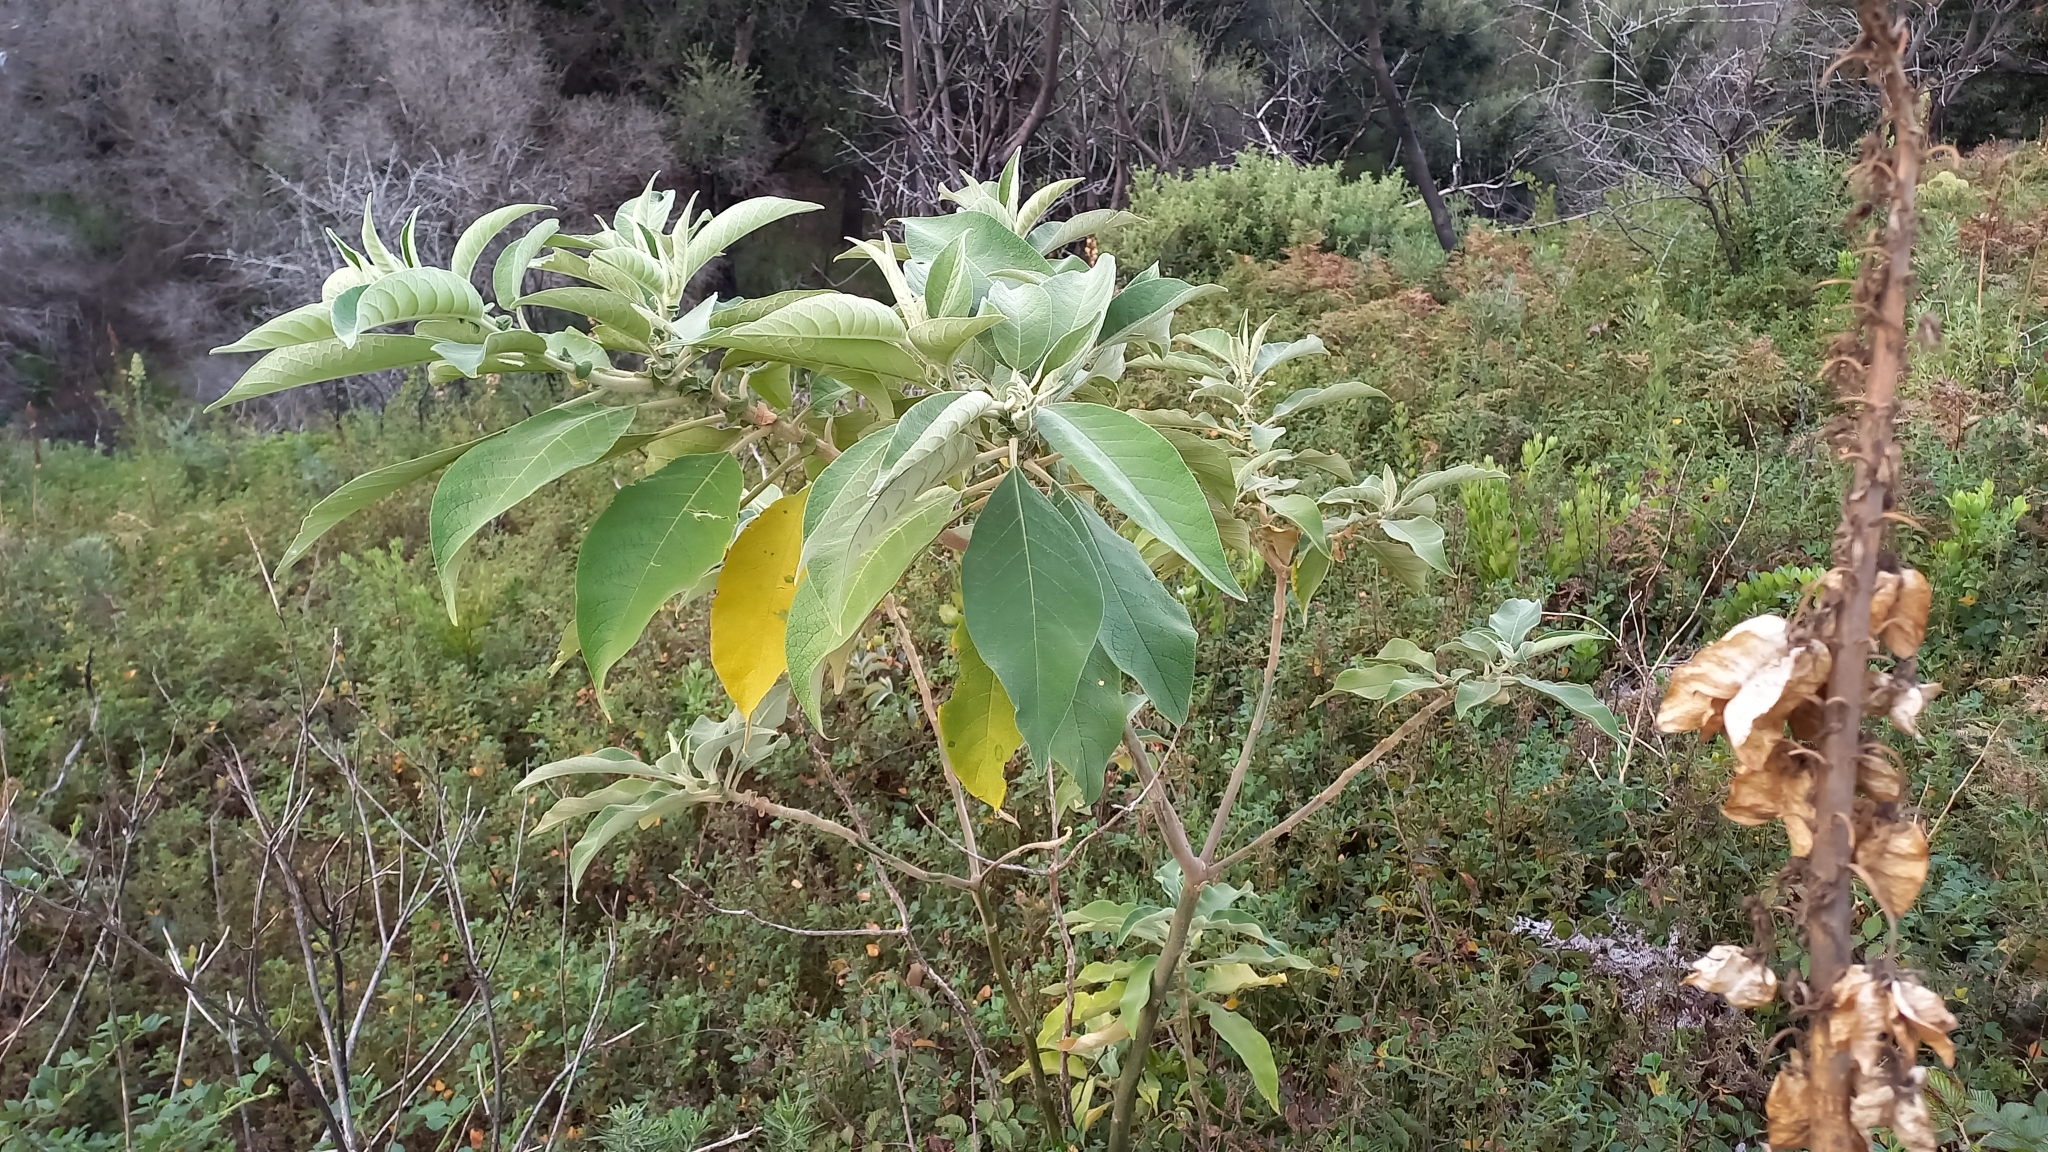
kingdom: Plantae
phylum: Tracheophyta
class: Magnoliopsida
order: Solanales
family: Solanaceae
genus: Solanum
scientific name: Solanum mauritianum
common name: Earleaf nightshade
